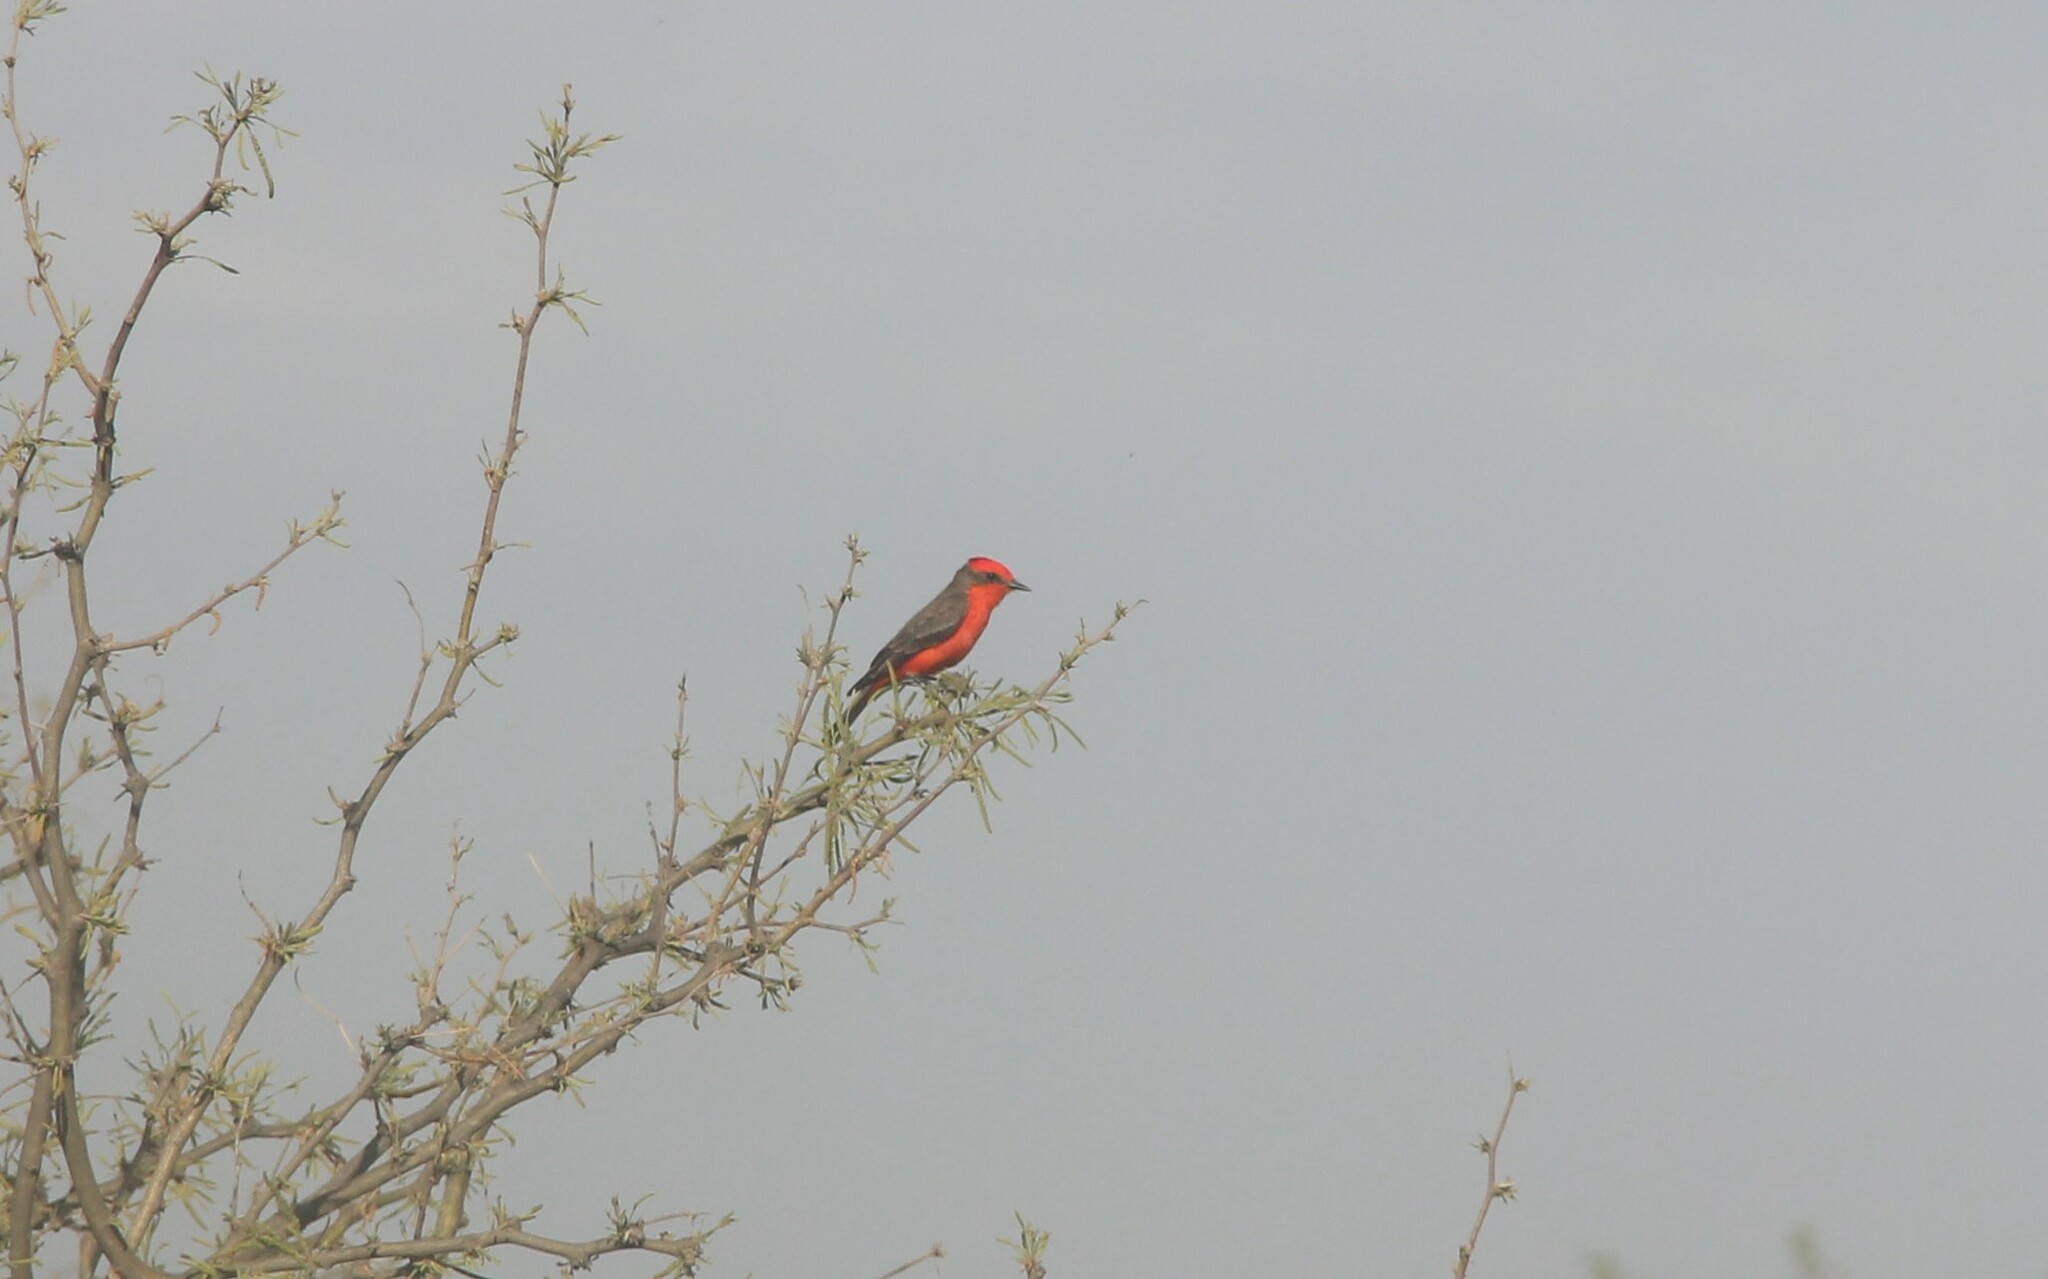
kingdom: Animalia
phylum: Chordata
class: Aves
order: Passeriformes
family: Tyrannidae
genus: Pyrocephalus
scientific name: Pyrocephalus rubinus
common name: Vermilion flycatcher
